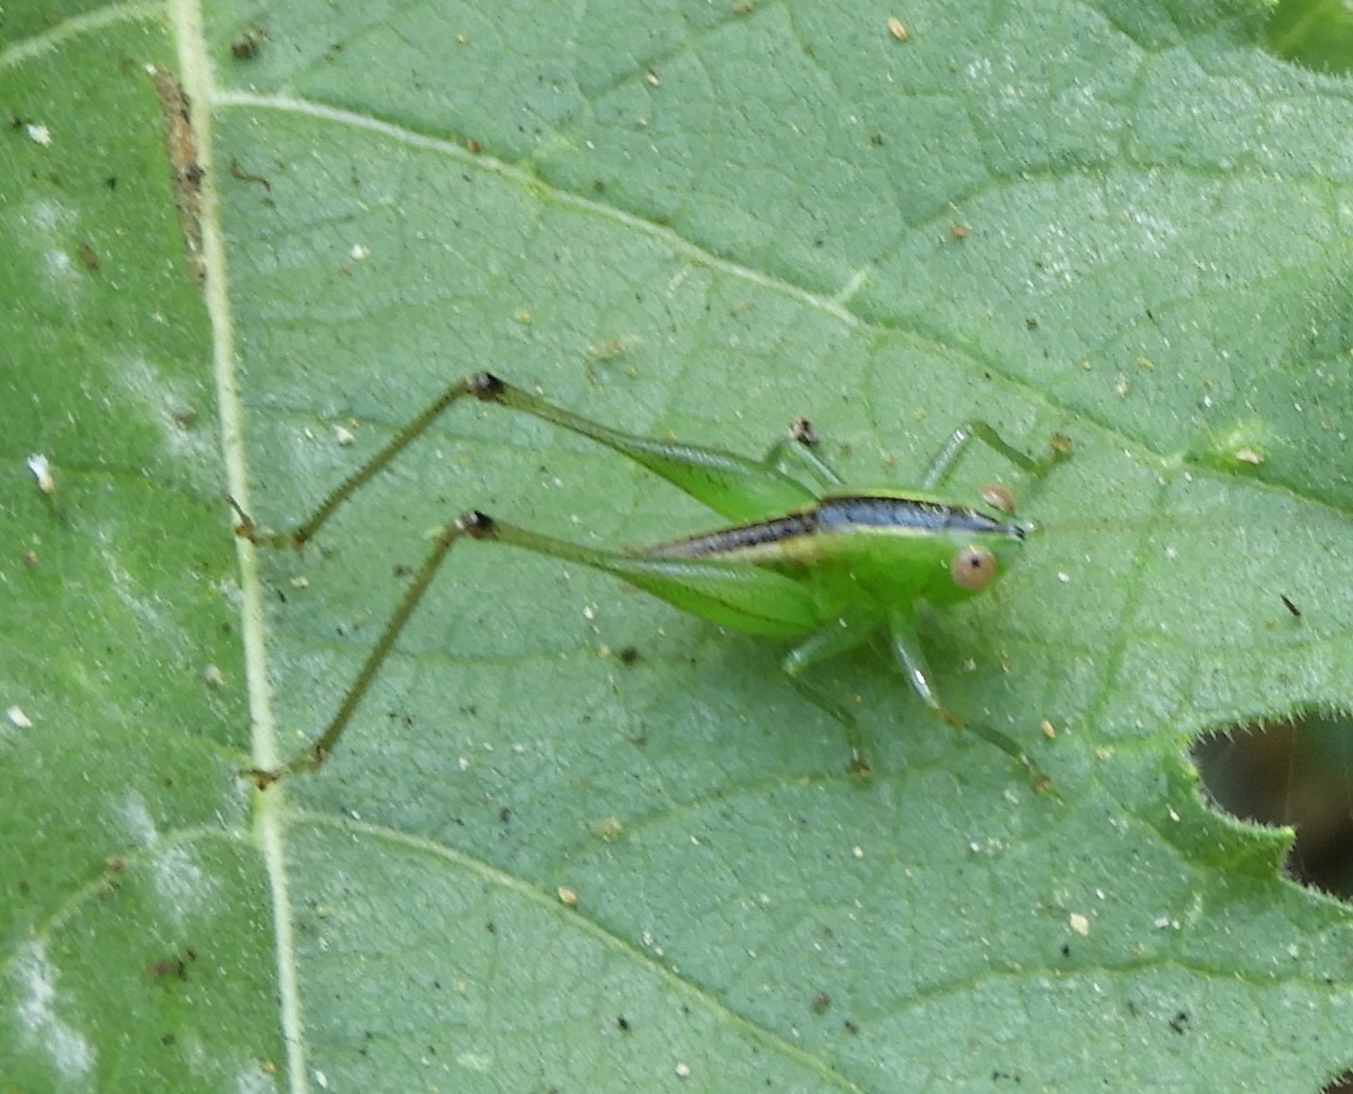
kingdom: Animalia
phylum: Arthropoda
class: Insecta
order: Orthoptera
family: Tettigoniidae
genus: Conocephalus
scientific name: Conocephalus
